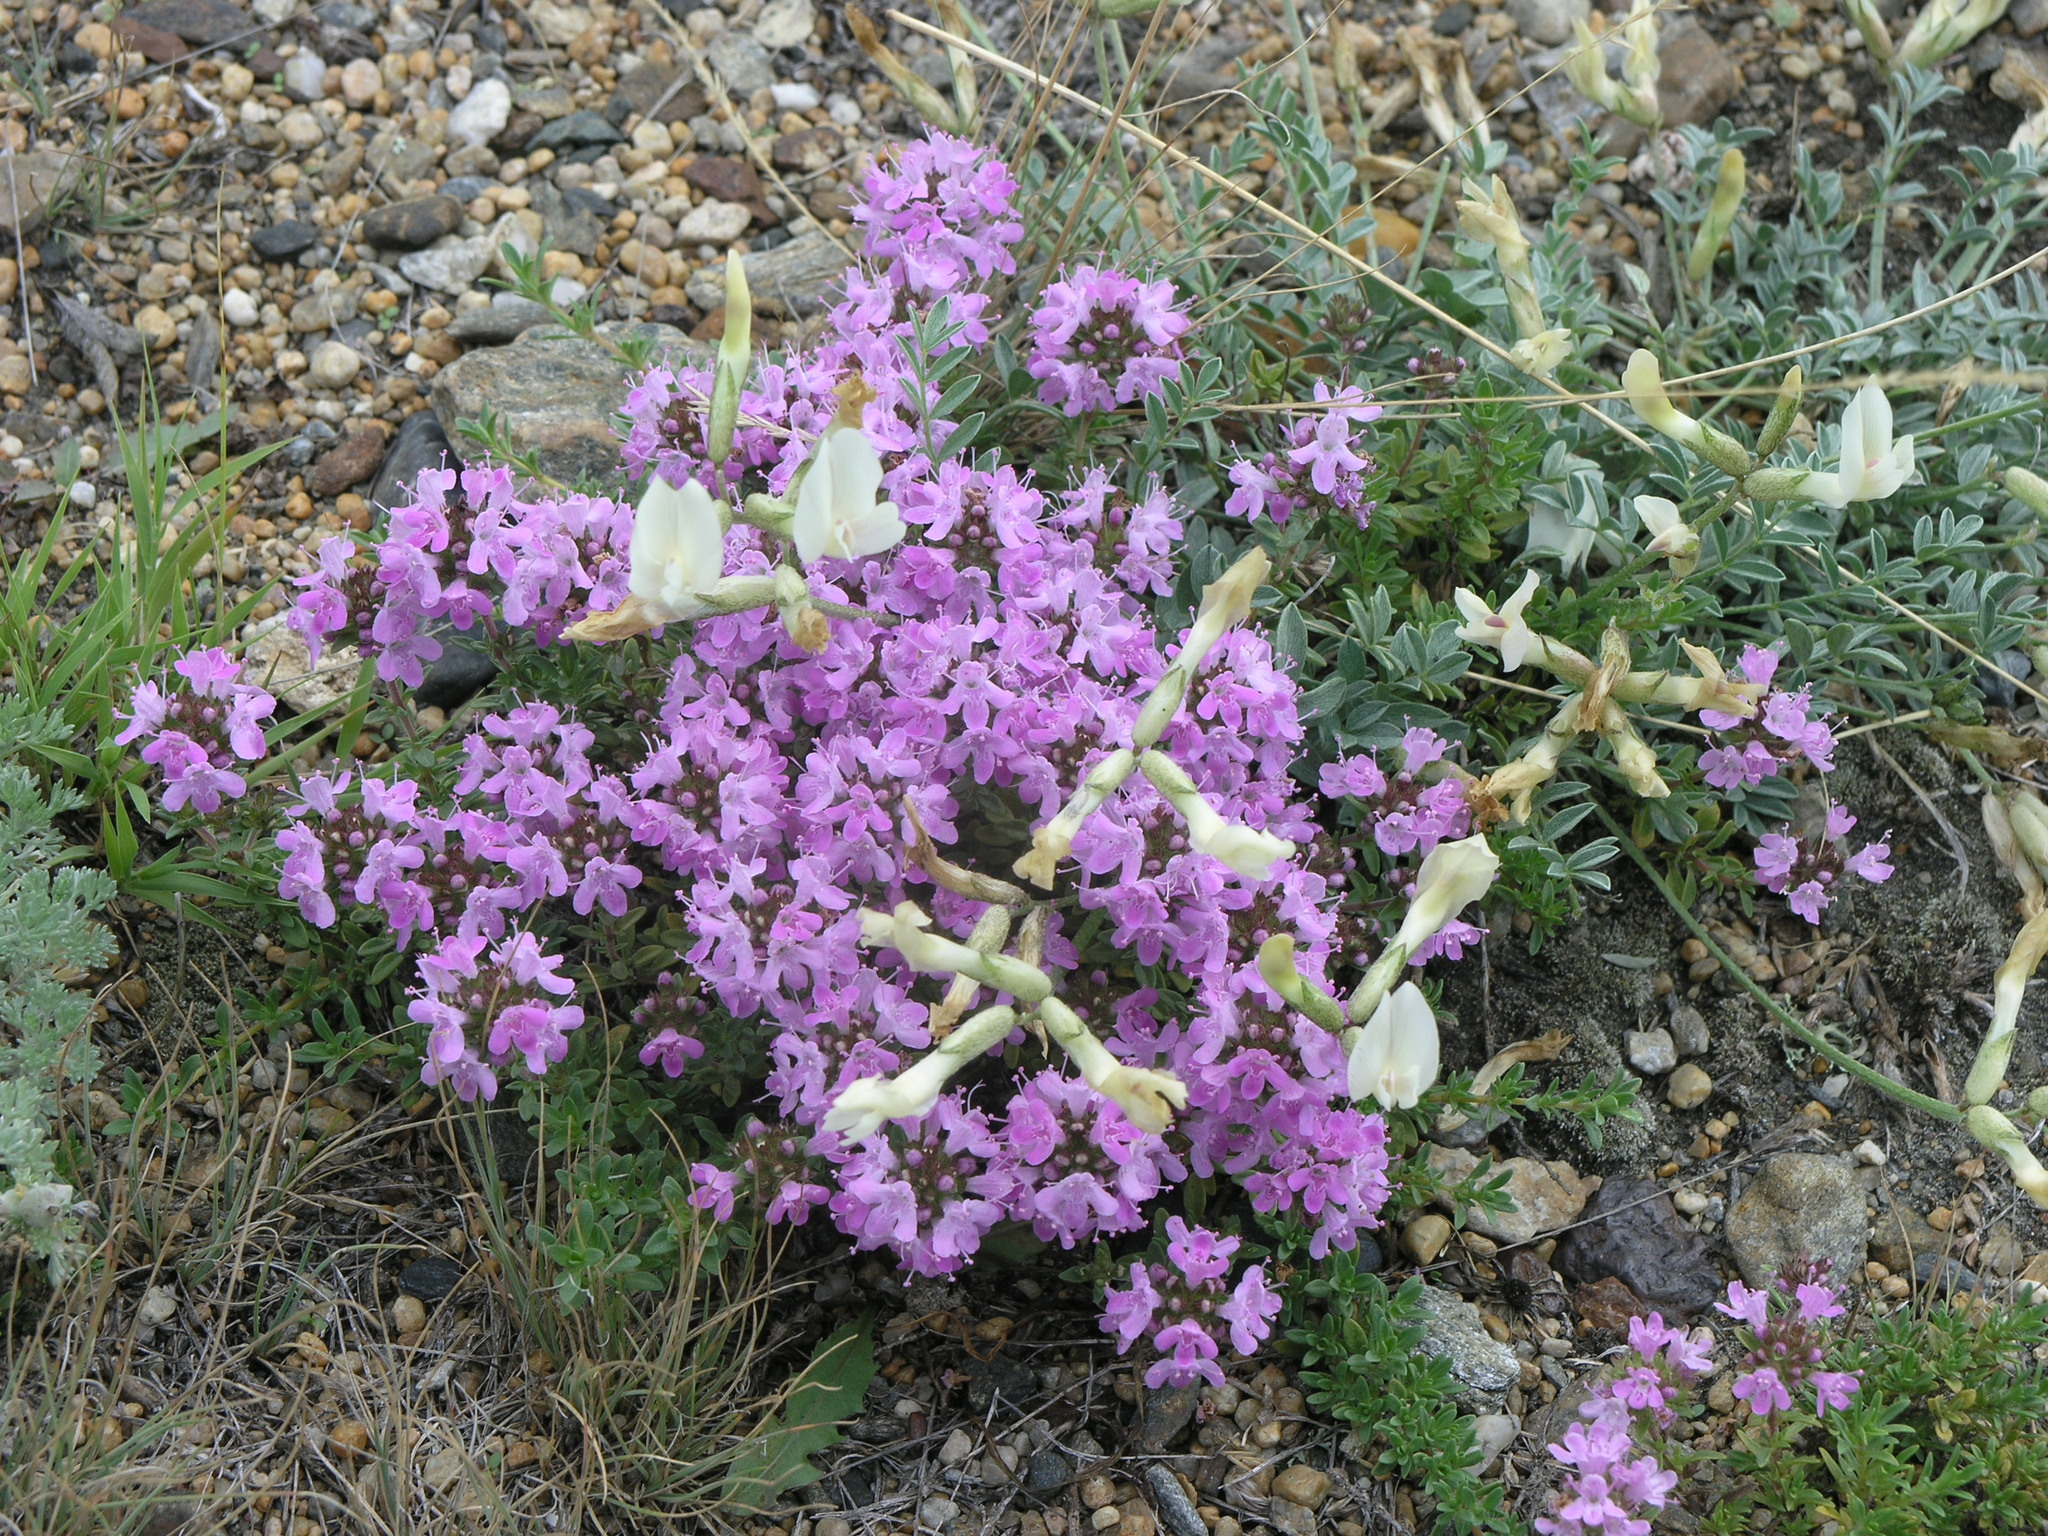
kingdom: Plantae
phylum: Tracheophyta
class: Magnoliopsida
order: Fabales
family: Fabaceae
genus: Astragalus
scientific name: Astragalus depauperatus
